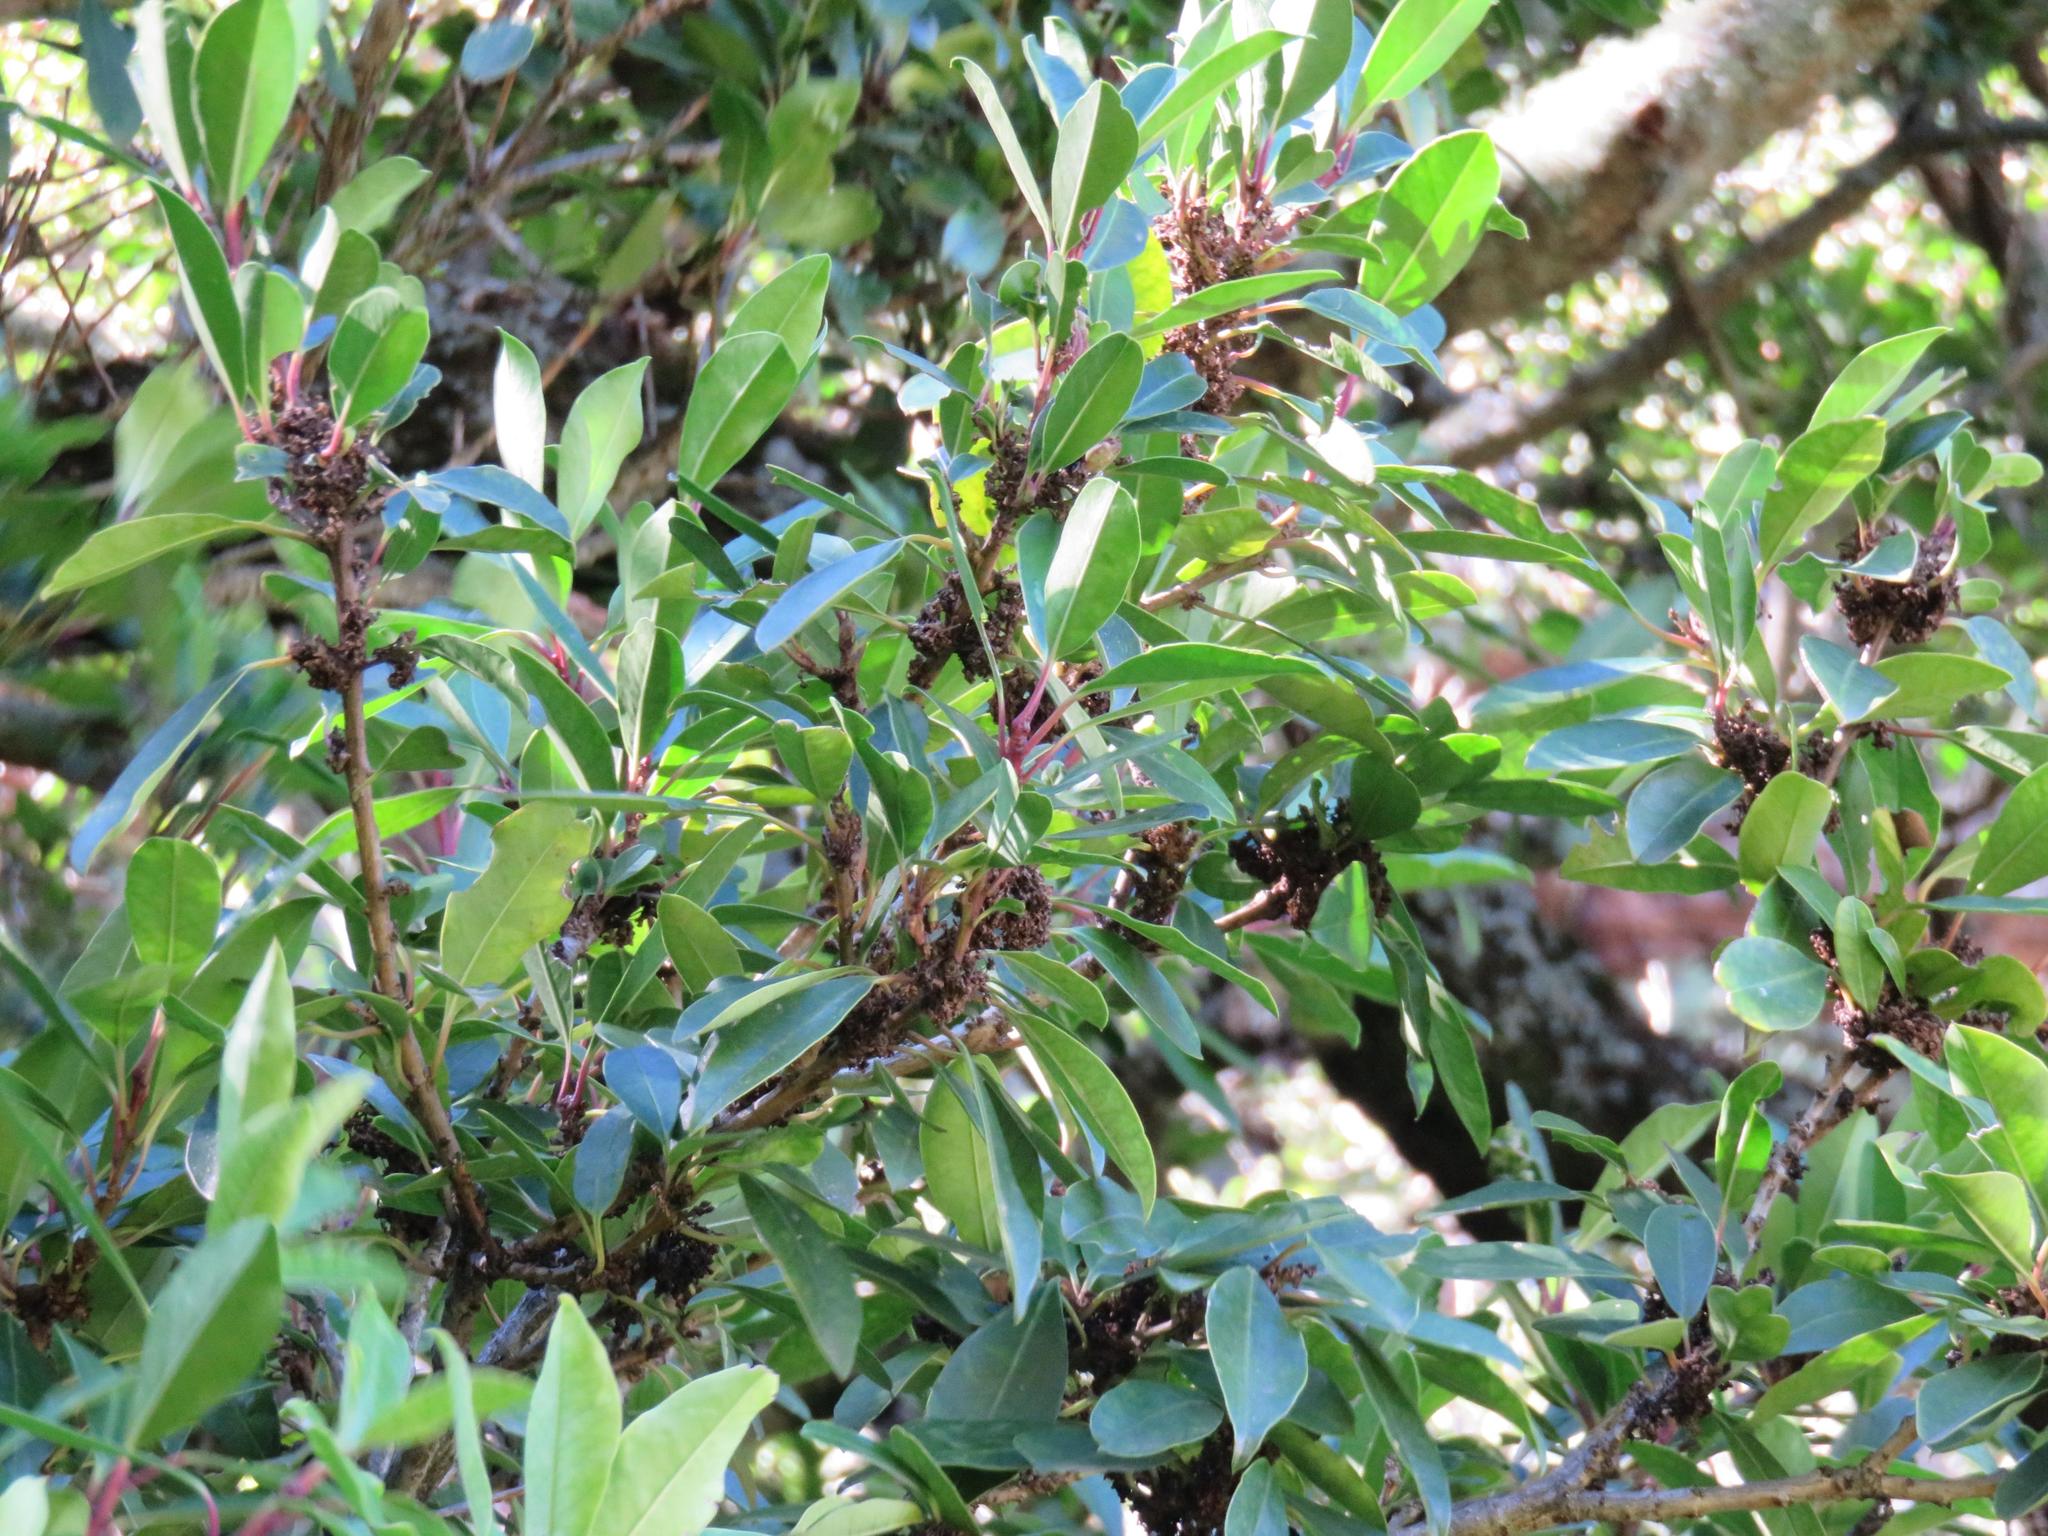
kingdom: Plantae
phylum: Tracheophyta
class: Magnoliopsida
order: Aquifoliales
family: Aquifoliaceae
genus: Ilex
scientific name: Ilex mitis
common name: African holly
